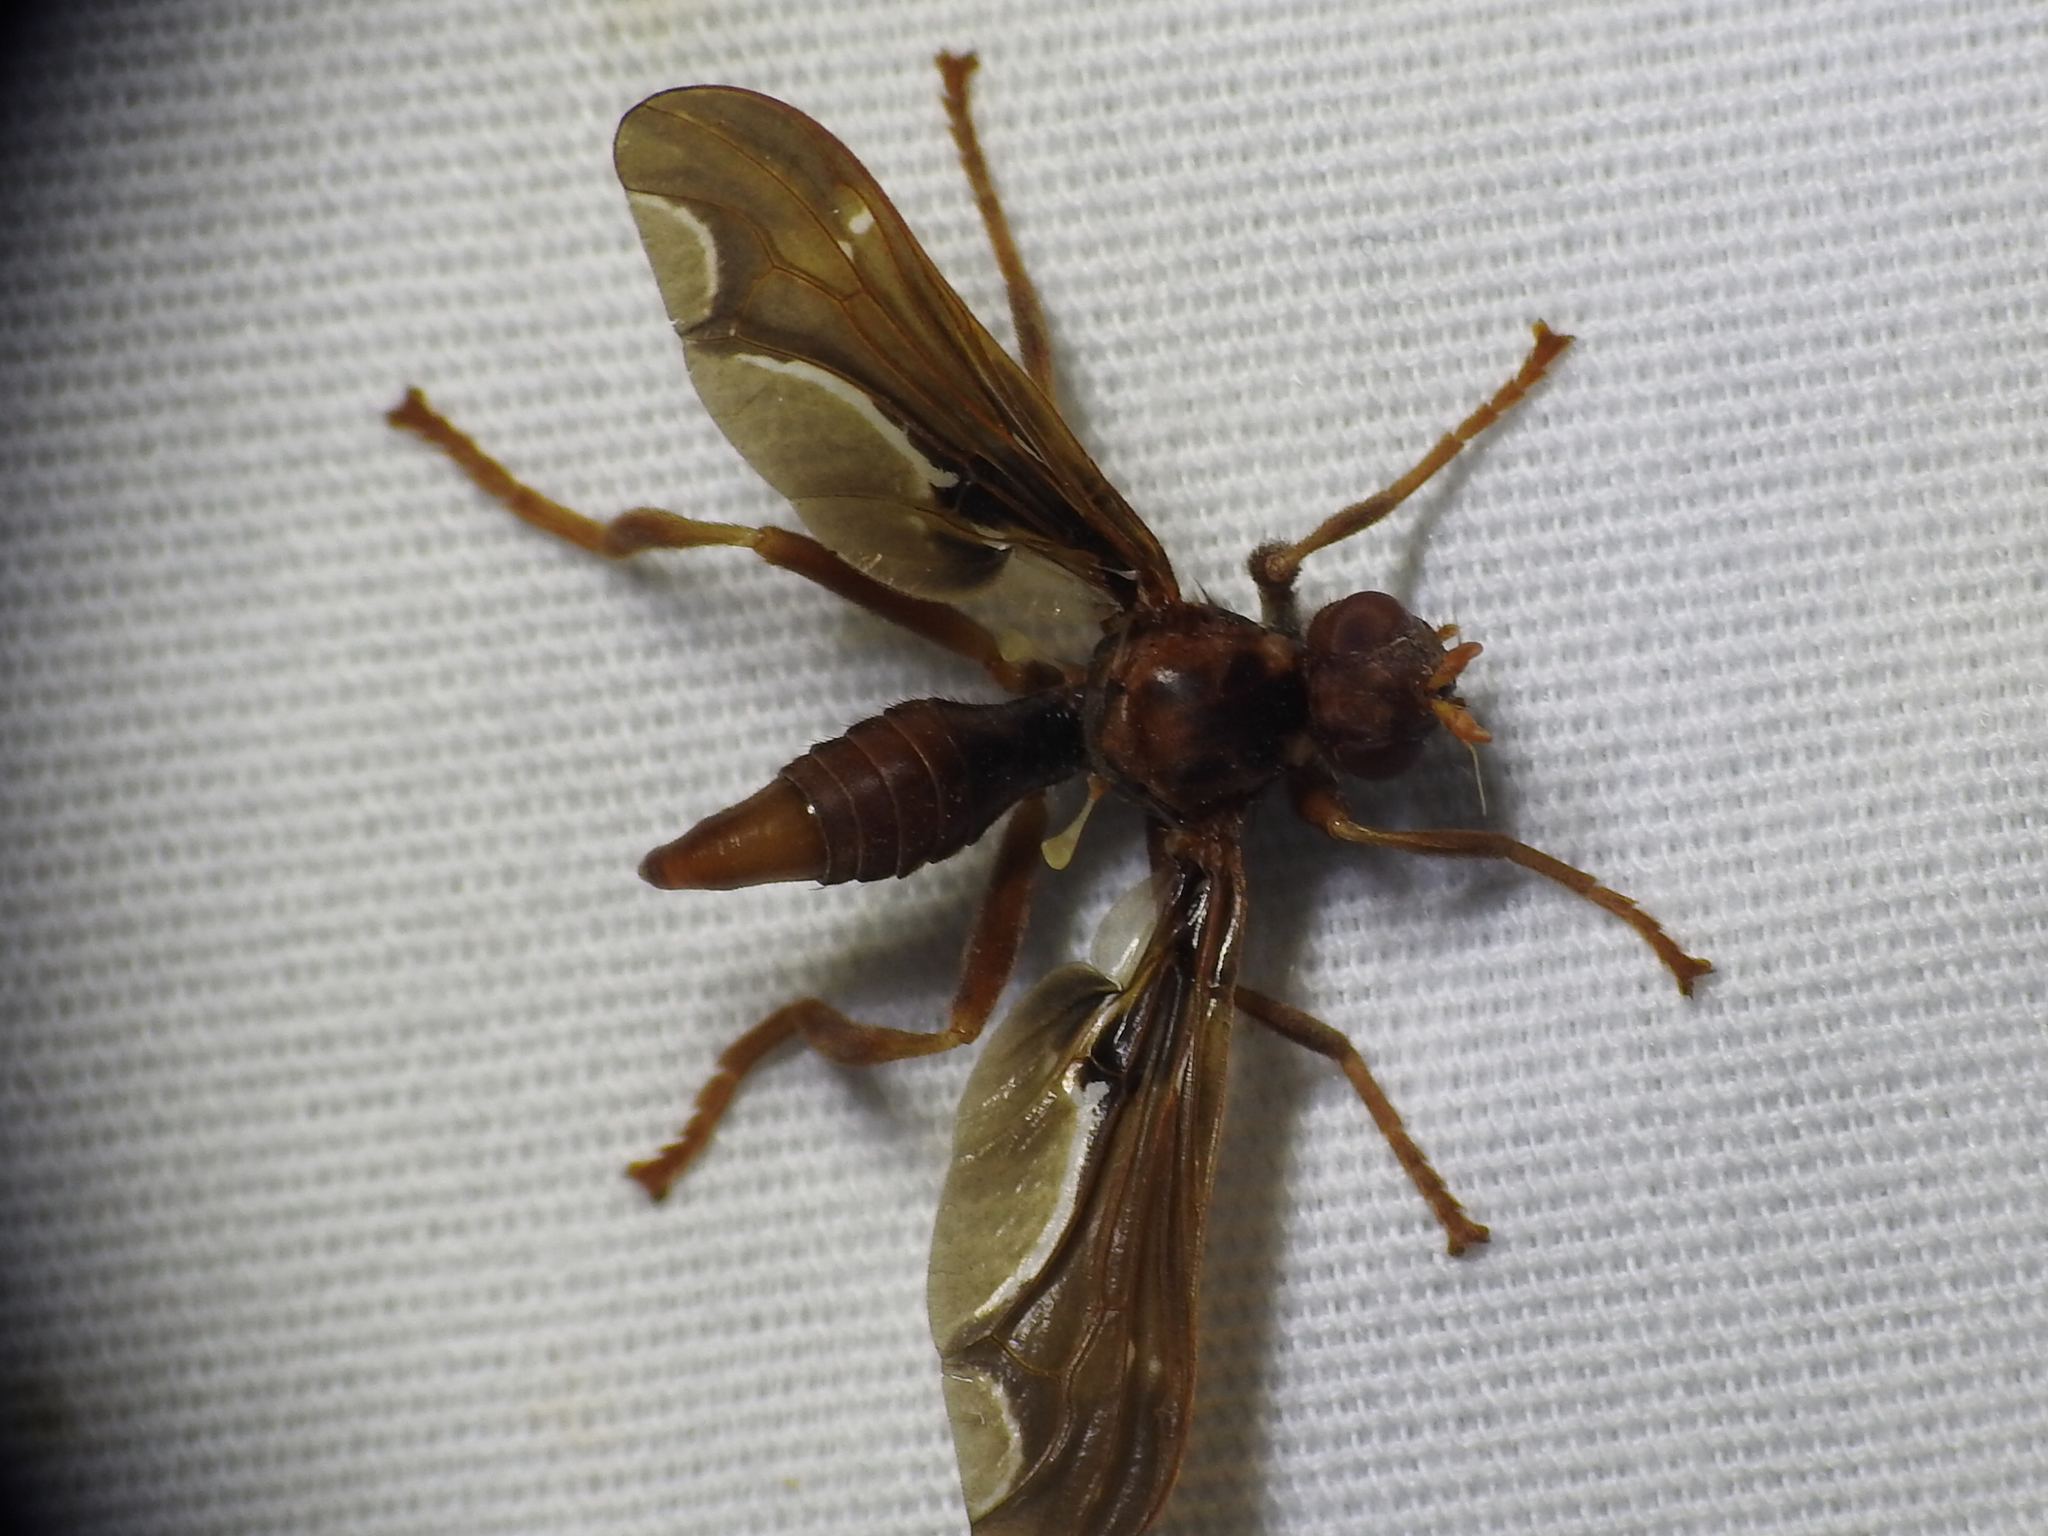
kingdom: Animalia
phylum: Arthropoda
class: Insecta
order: Diptera
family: Pyrgotidae
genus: Pyrgota
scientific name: Pyrgota undata
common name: Waved light fly
